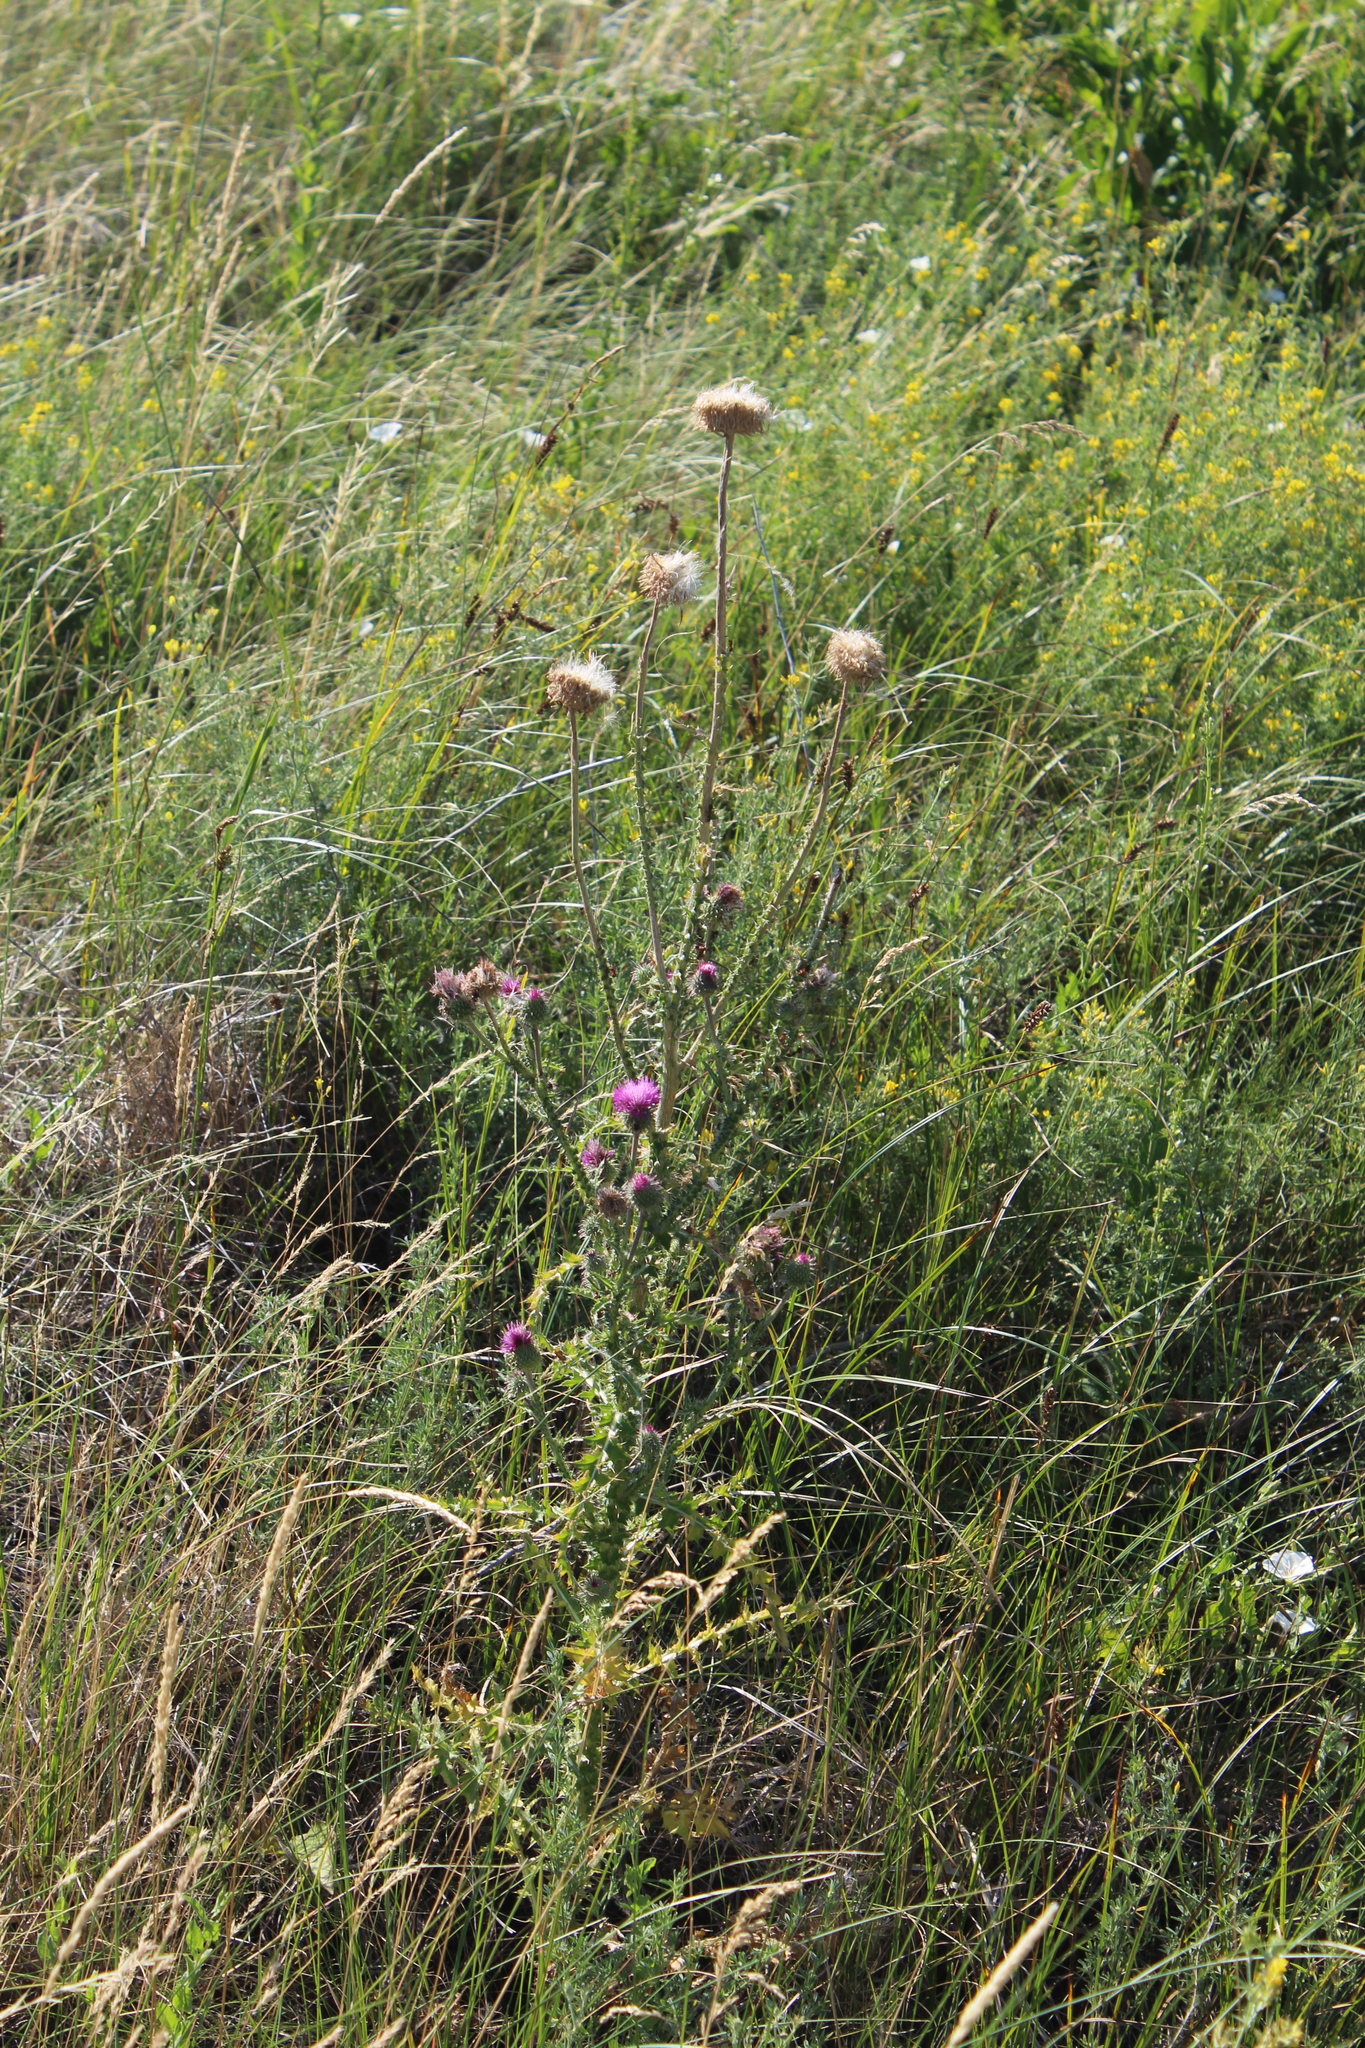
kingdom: Plantae
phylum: Tracheophyta
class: Magnoliopsida
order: Asterales
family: Asteraceae
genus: Carduus
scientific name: Carduus uncinatus
